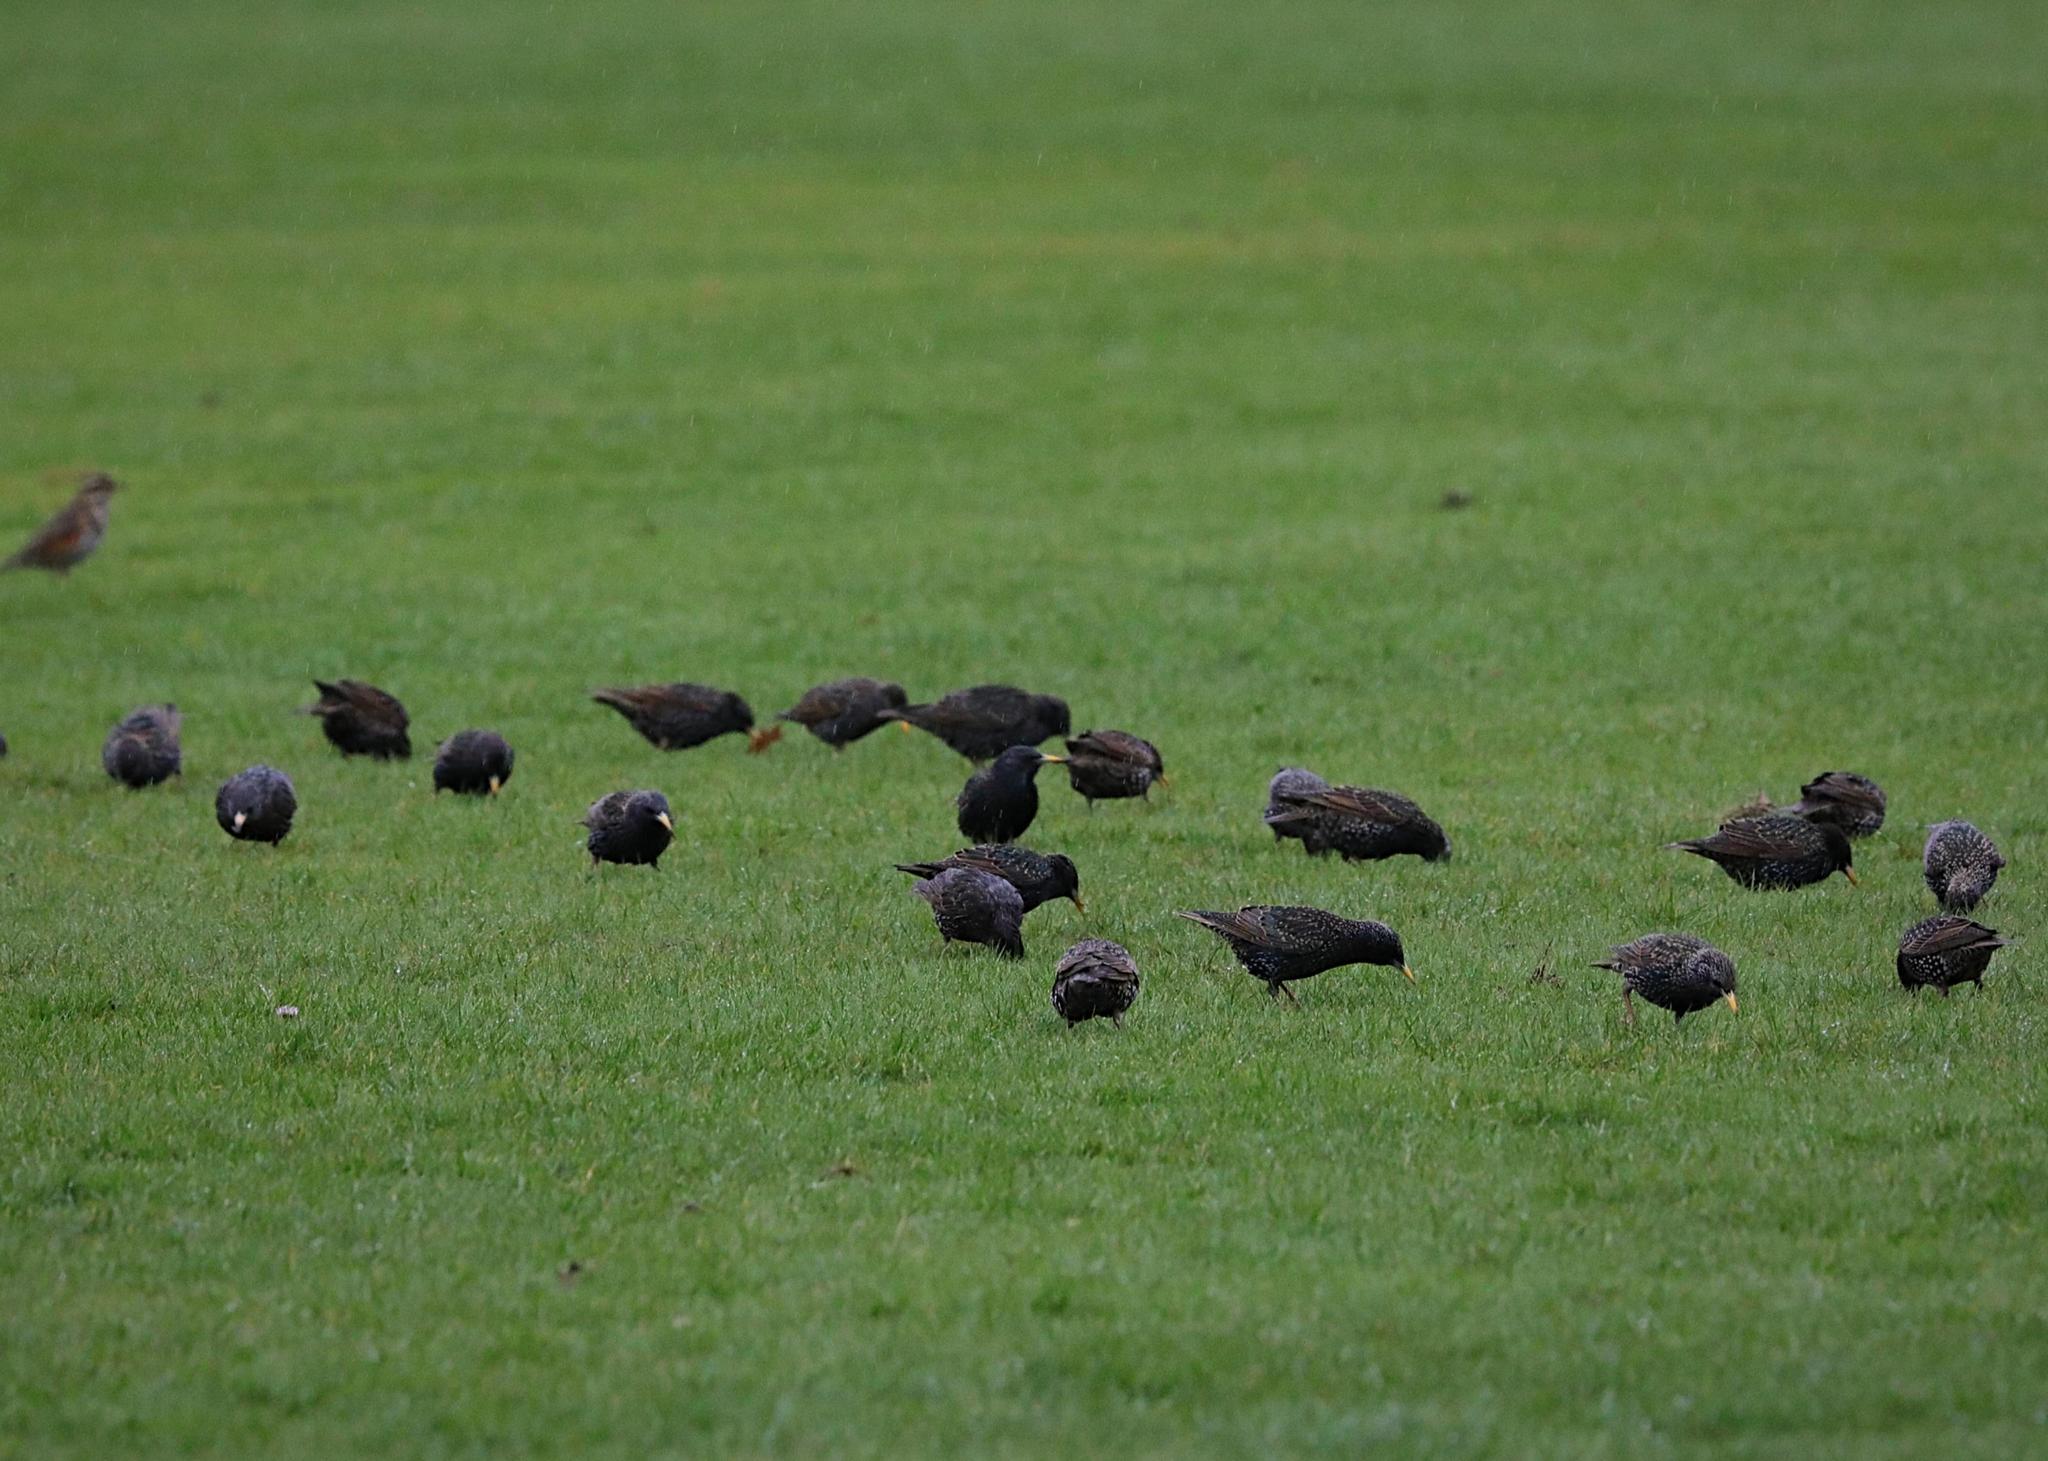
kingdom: Animalia
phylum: Chordata
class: Aves
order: Passeriformes
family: Sturnidae
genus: Sturnus
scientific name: Sturnus vulgaris
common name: Common starling
